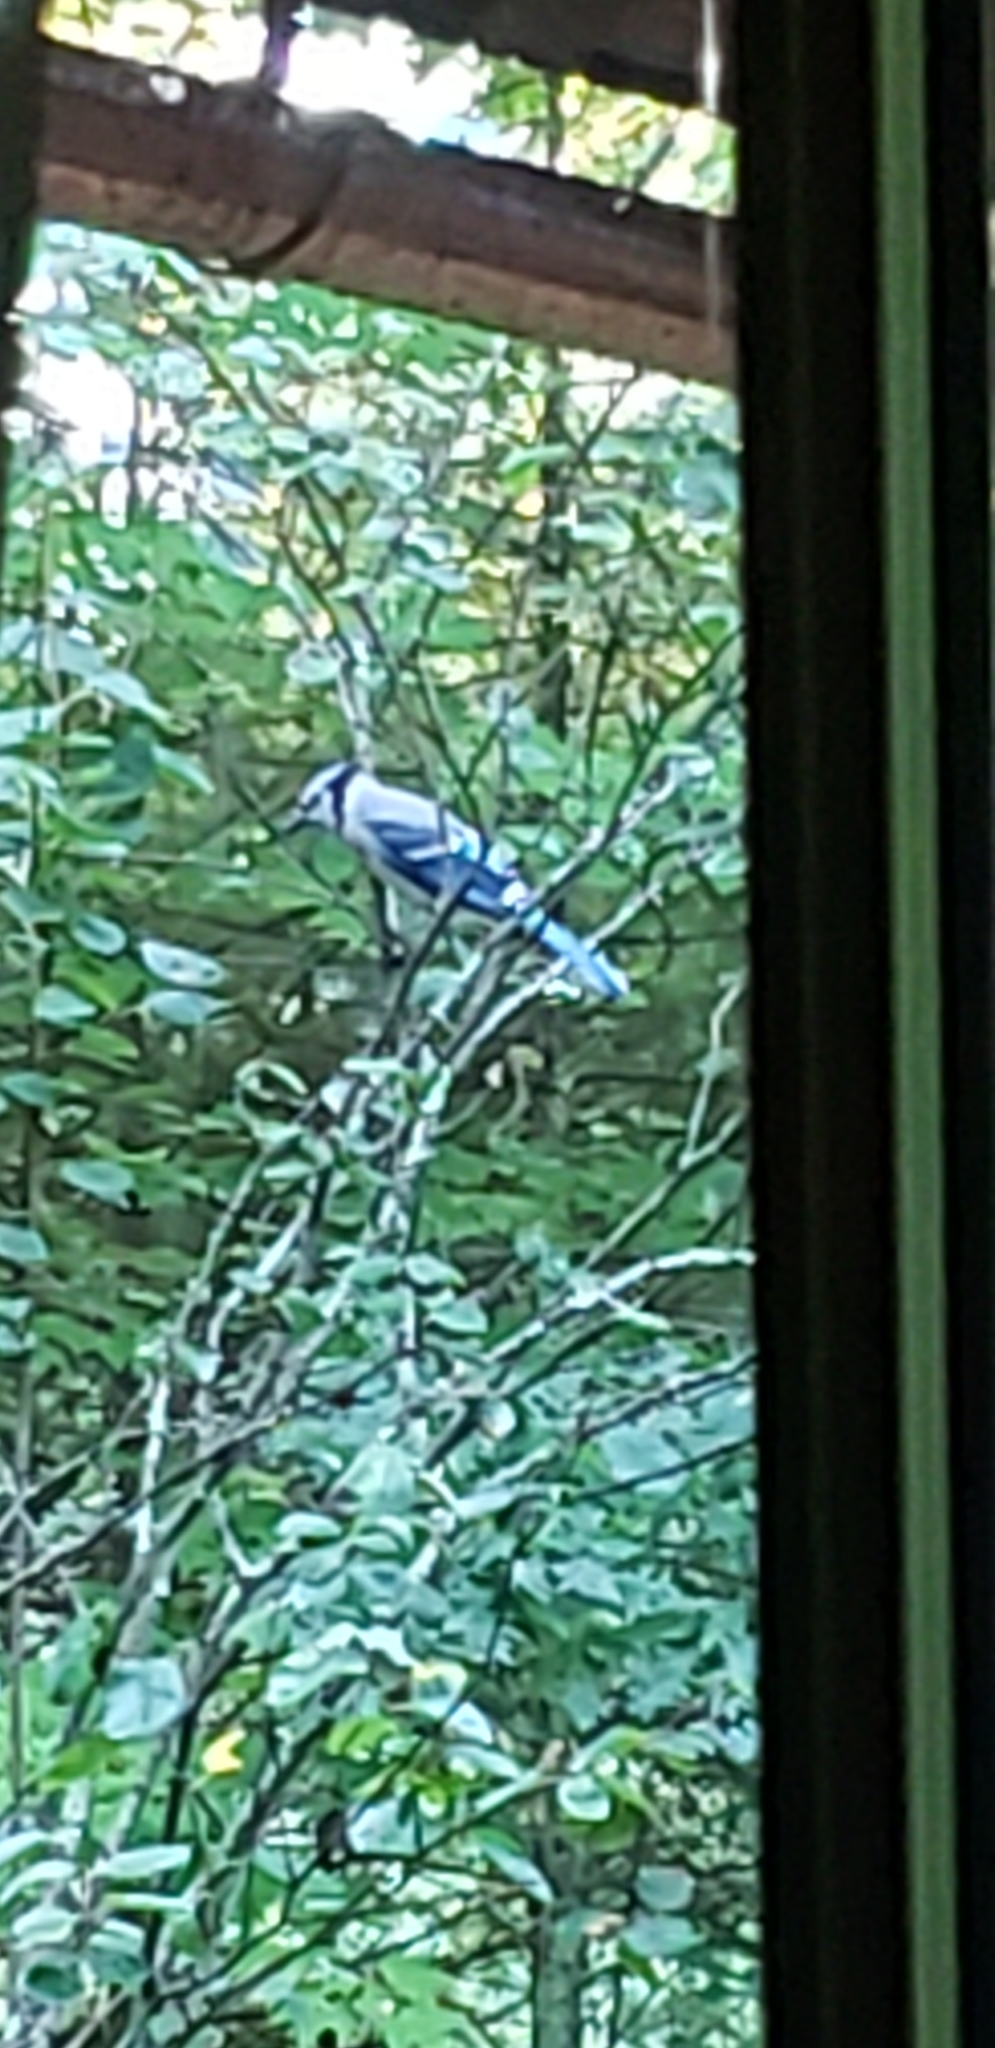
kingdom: Animalia
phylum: Chordata
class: Aves
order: Passeriformes
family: Corvidae
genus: Cyanocitta
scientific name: Cyanocitta cristata
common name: Blue jay
